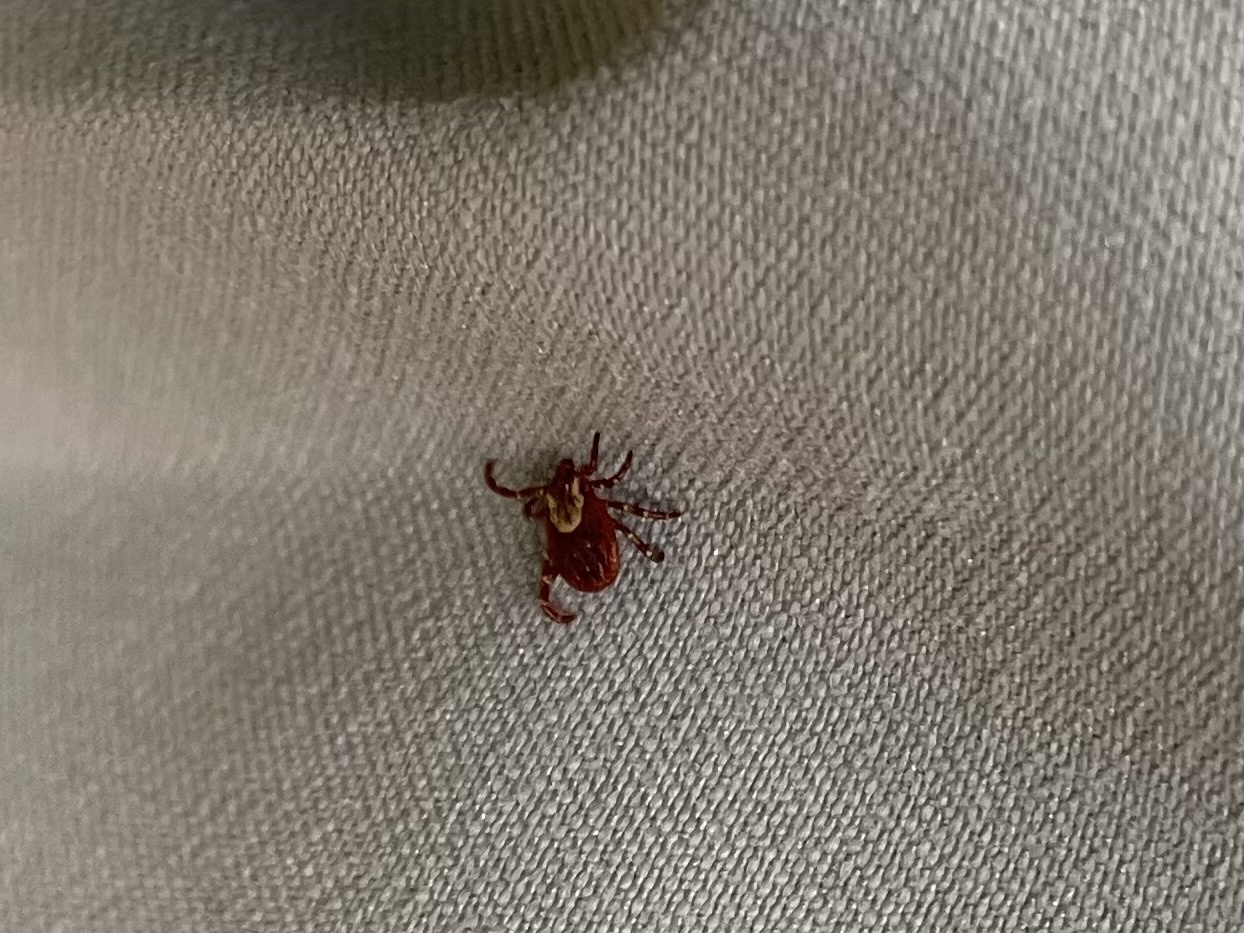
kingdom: Animalia
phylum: Arthropoda
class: Arachnida
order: Ixodida
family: Ixodidae
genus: Dermacentor
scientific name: Dermacentor variabilis
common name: American dog tick
